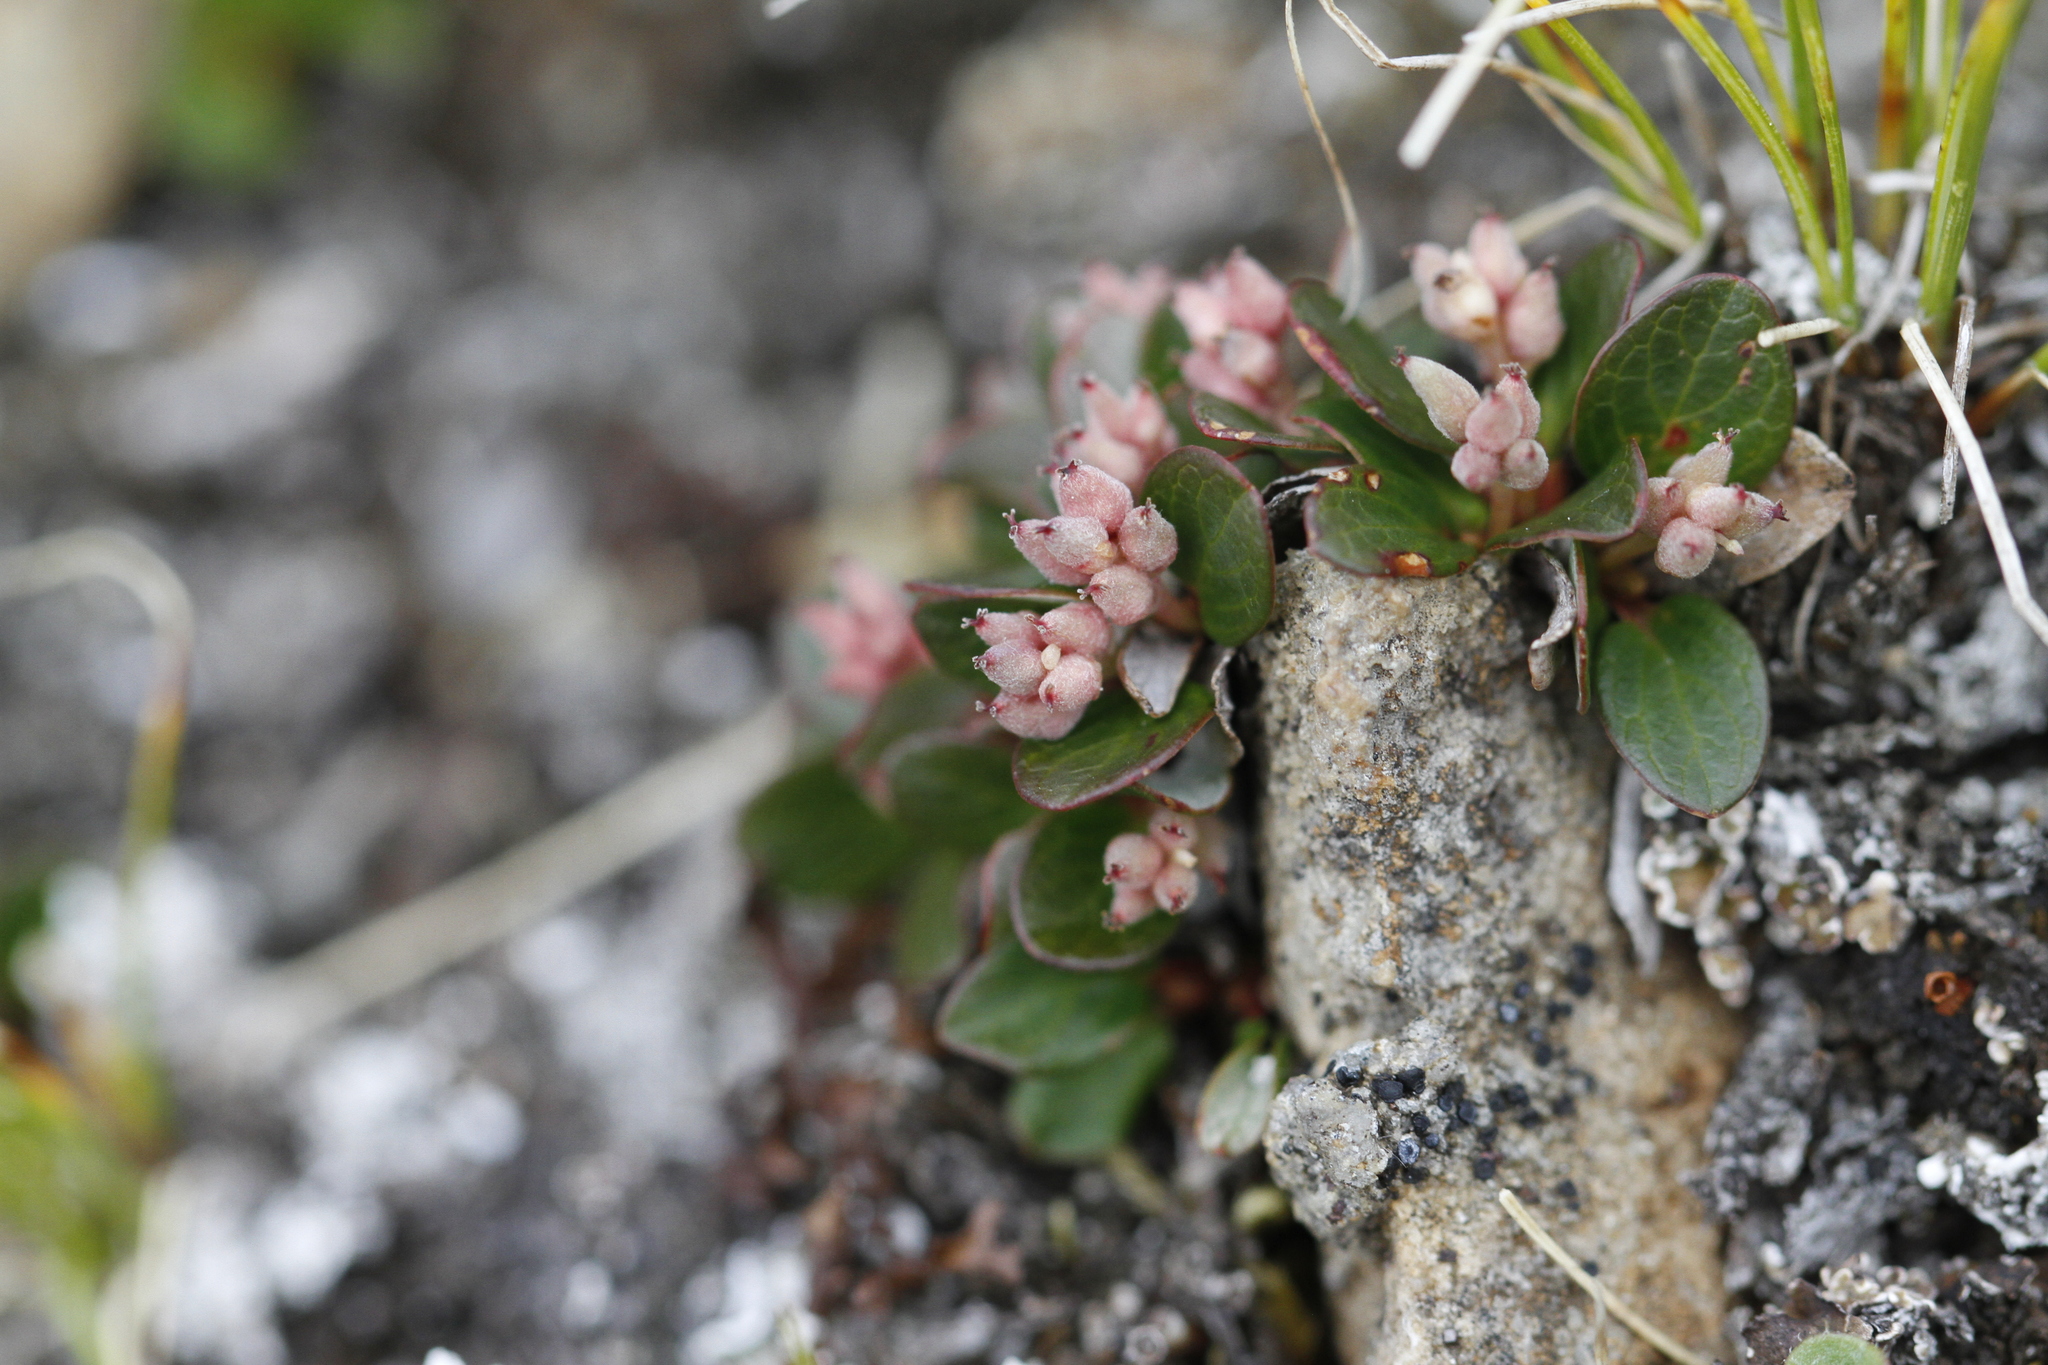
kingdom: Plantae
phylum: Tracheophyta
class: Magnoliopsida
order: Malpighiales
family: Salicaceae
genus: Salix
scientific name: Salix nivalis
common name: Dwarf snow willow
